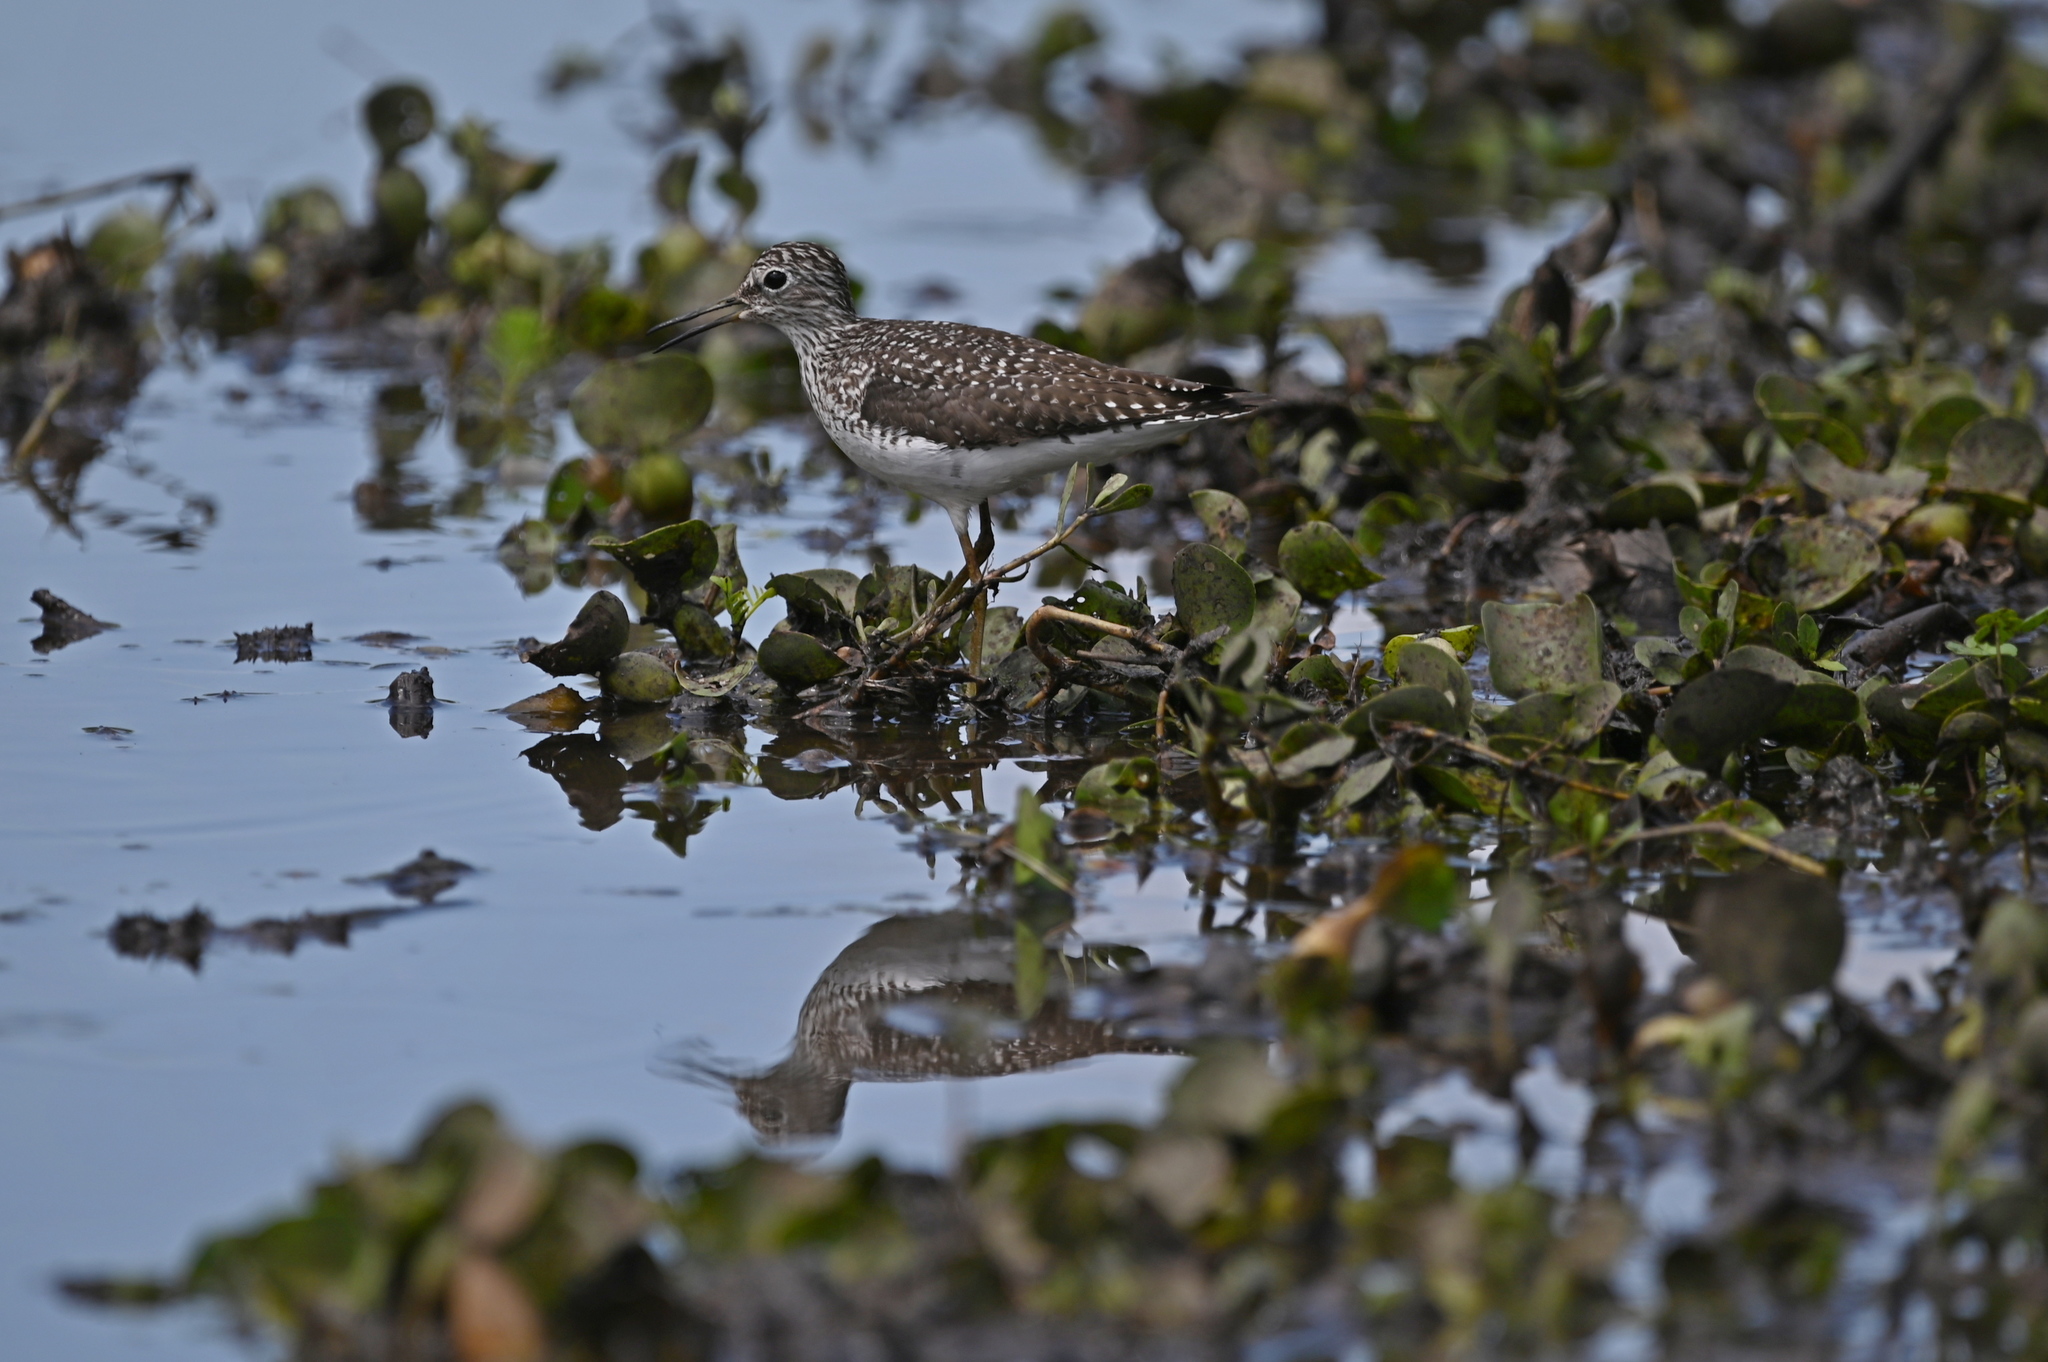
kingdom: Animalia
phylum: Chordata
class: Aves
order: Charadriiformes
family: Scolopacidae
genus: Tringa
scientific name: Tringa solitaria
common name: Solitary sandpiper
